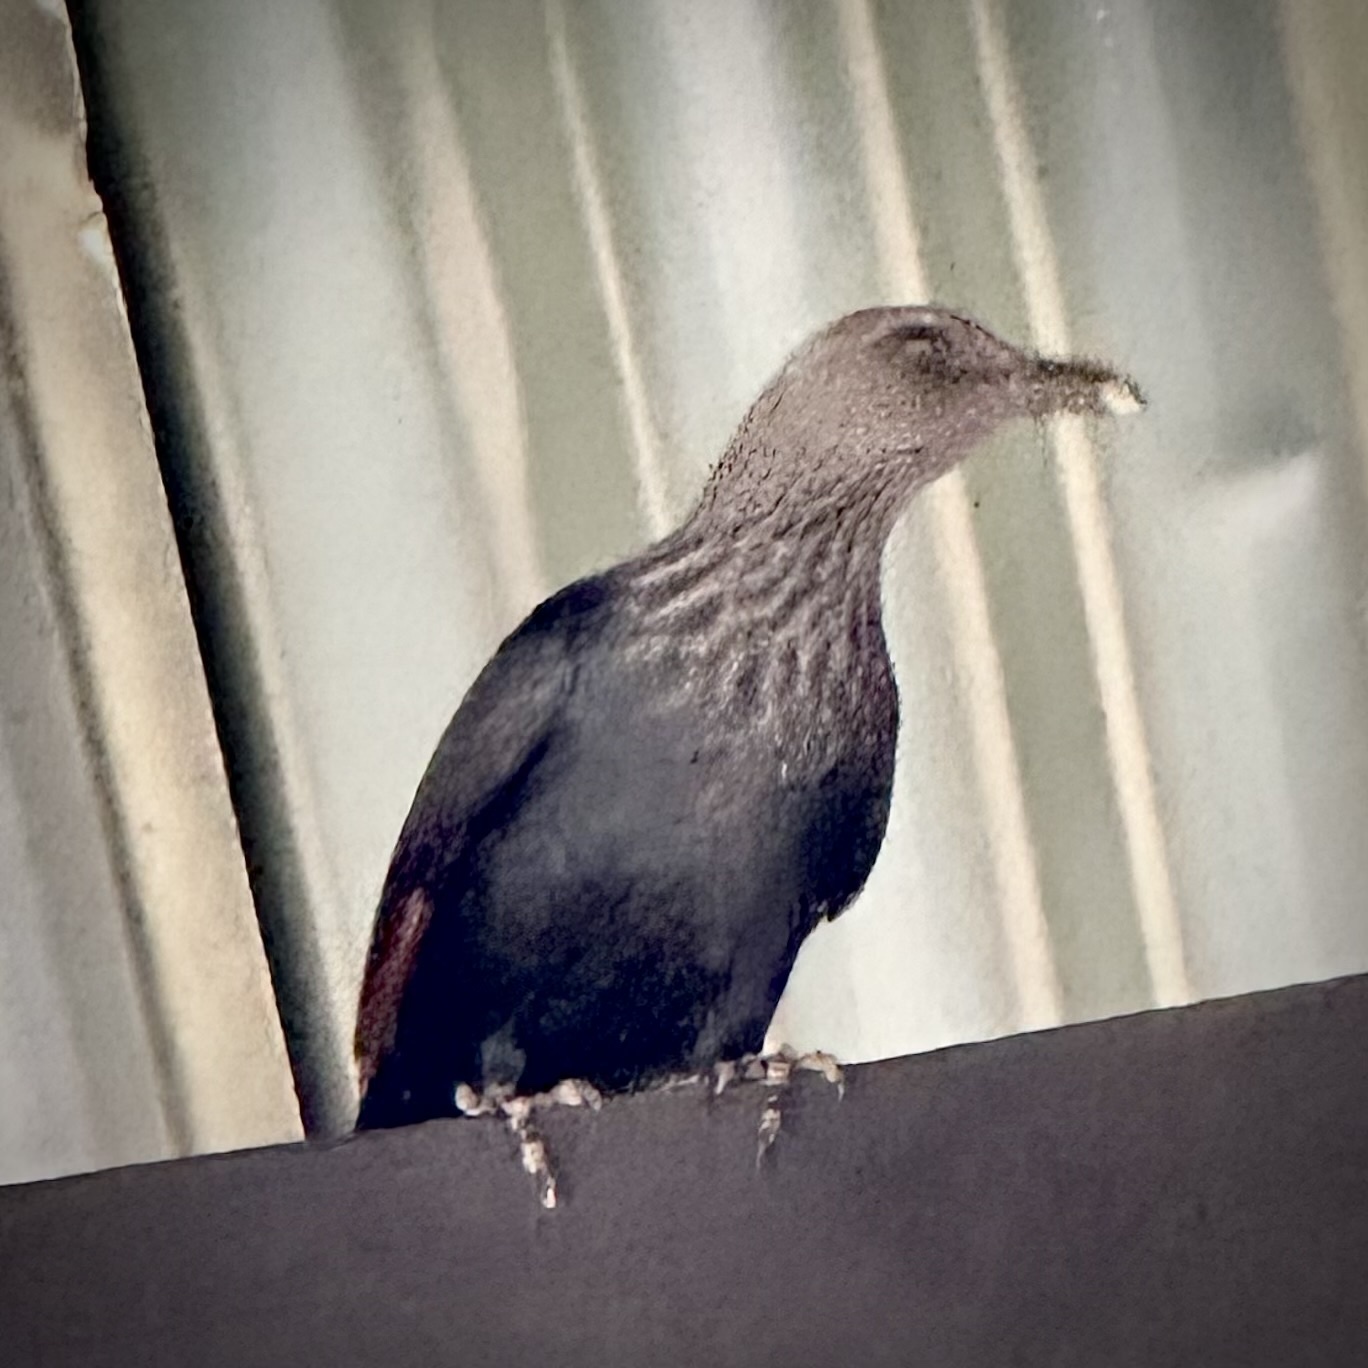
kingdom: Animalia
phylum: Chordata
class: Aves
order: Passeriformes
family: Sturnidae
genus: Onychognathus
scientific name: Onychognathus morio
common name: Red-winged starling
